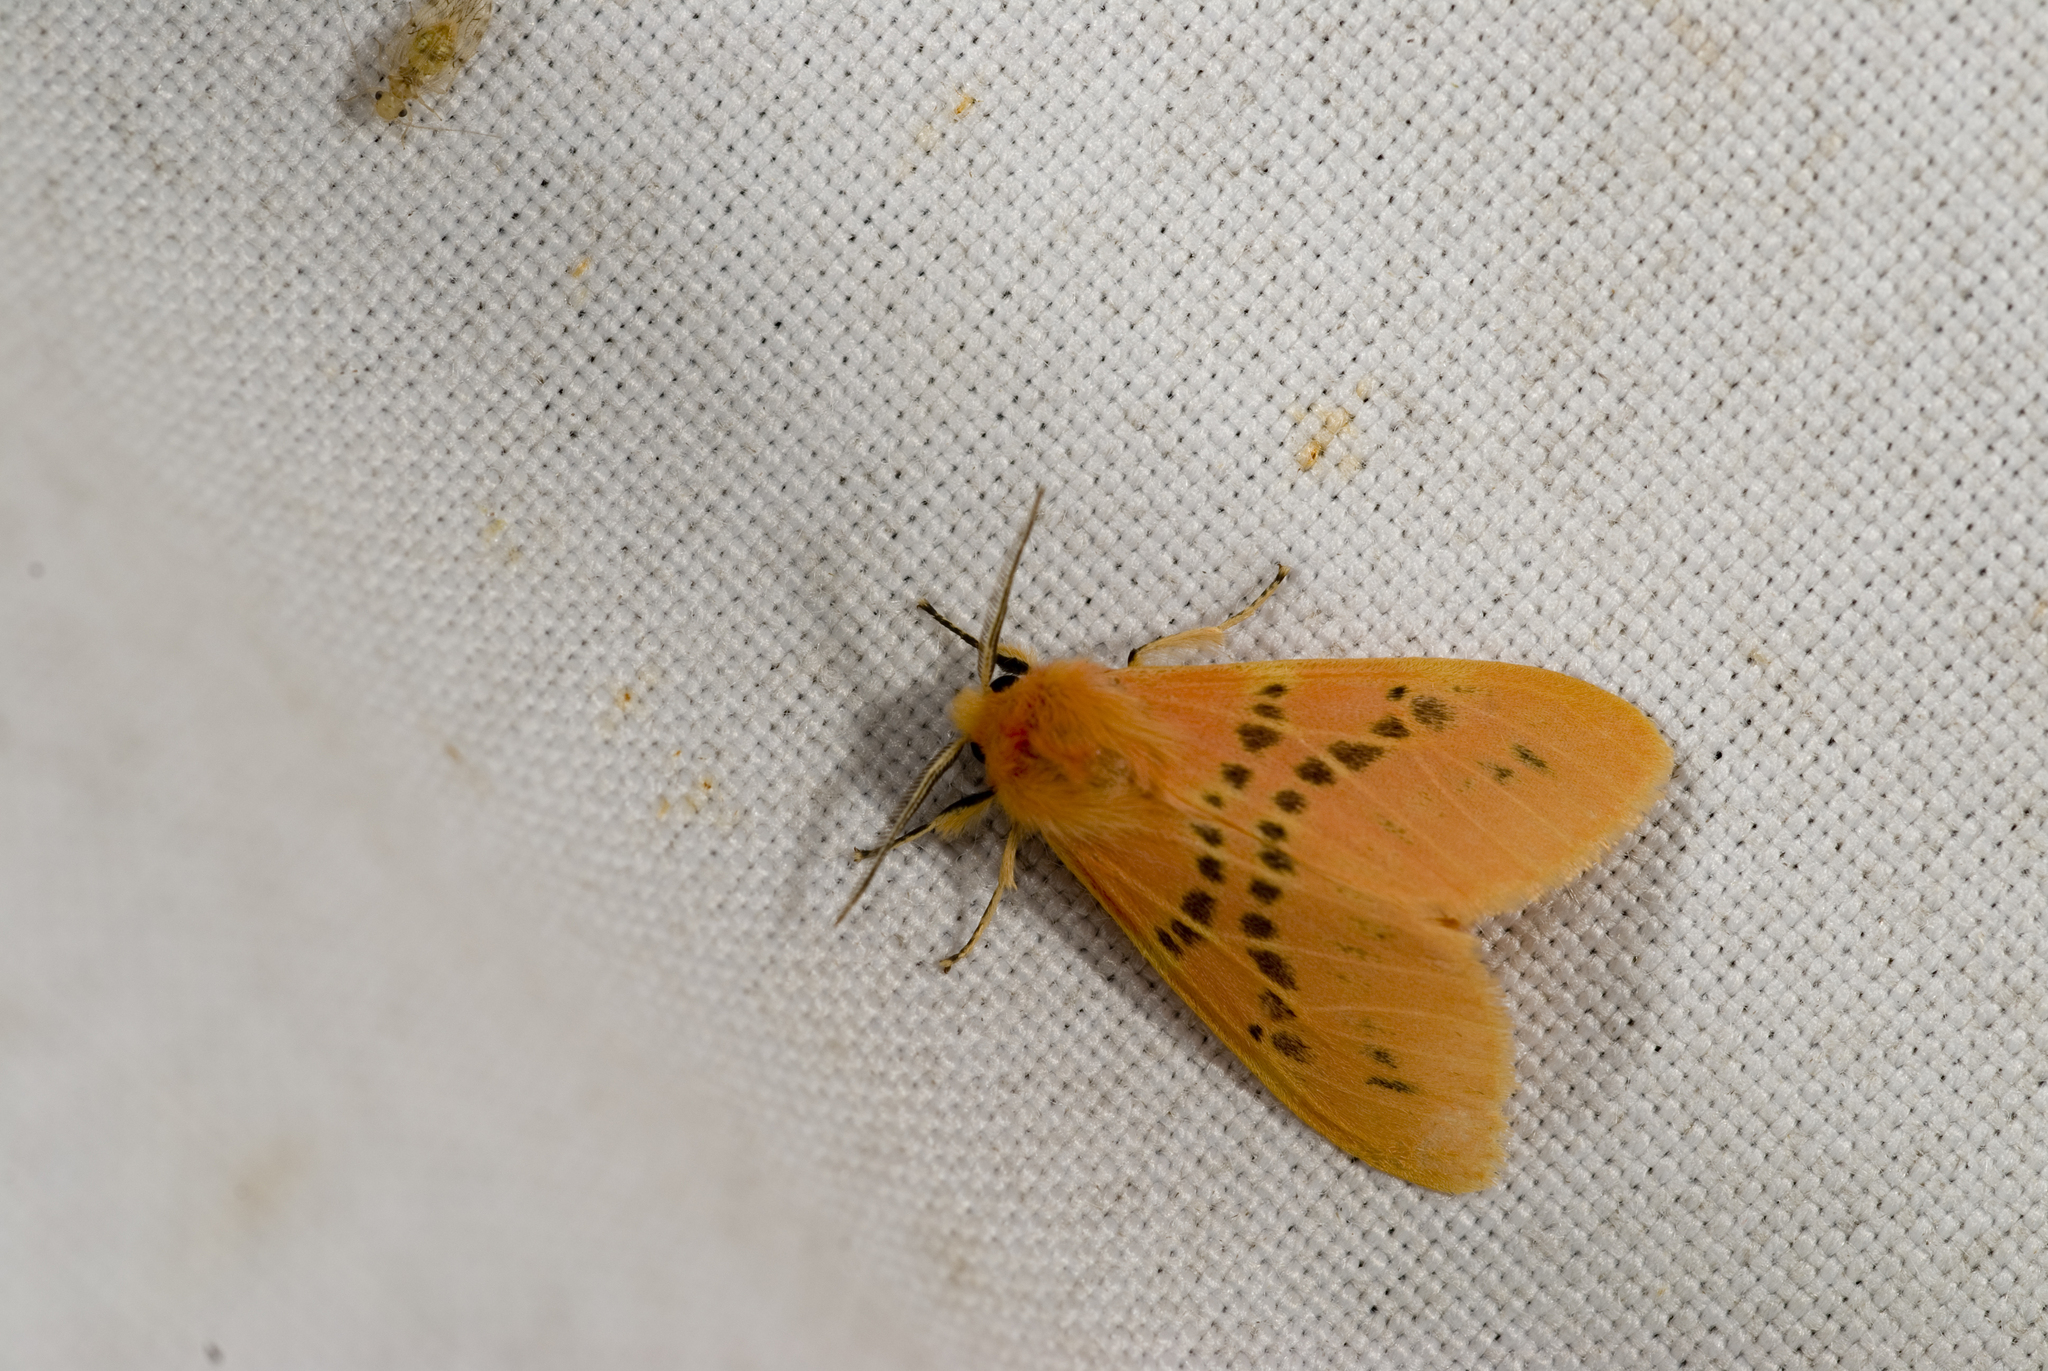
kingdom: Animalia
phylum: Arthropoda
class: Insecta
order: Lepidoptera
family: Erebidae
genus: Lemyra
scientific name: Lemyra alikangensis
